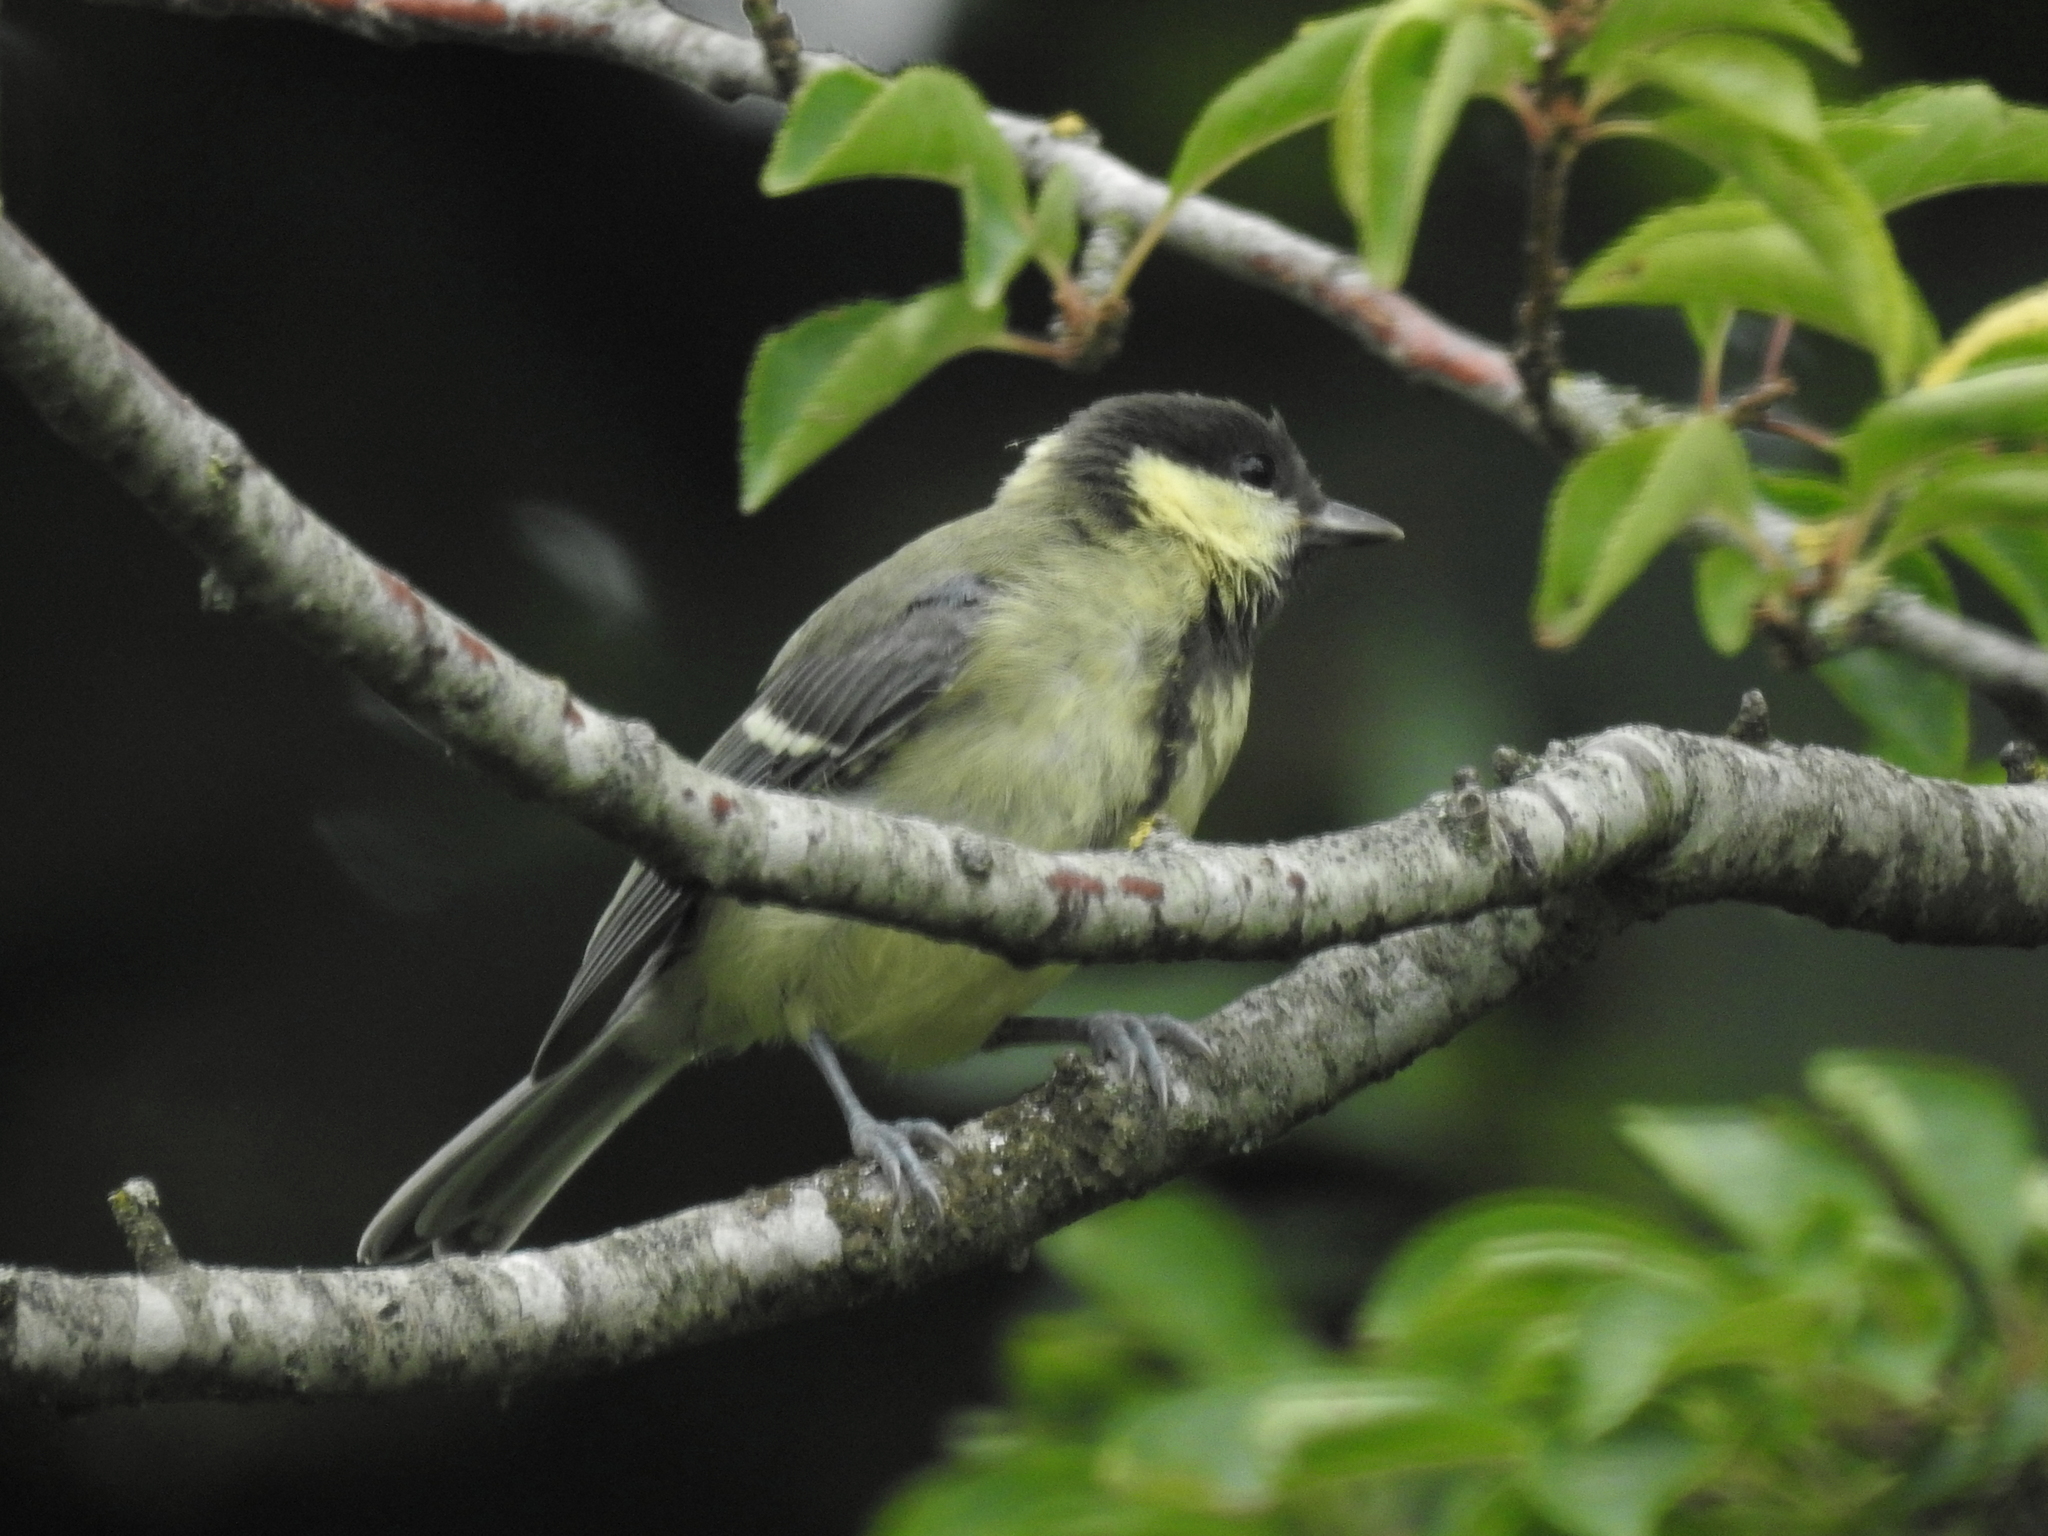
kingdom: Animalia
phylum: Chordata
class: Aves
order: Passeriformes
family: Paridae
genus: Parus
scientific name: Parus major
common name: Great tit
